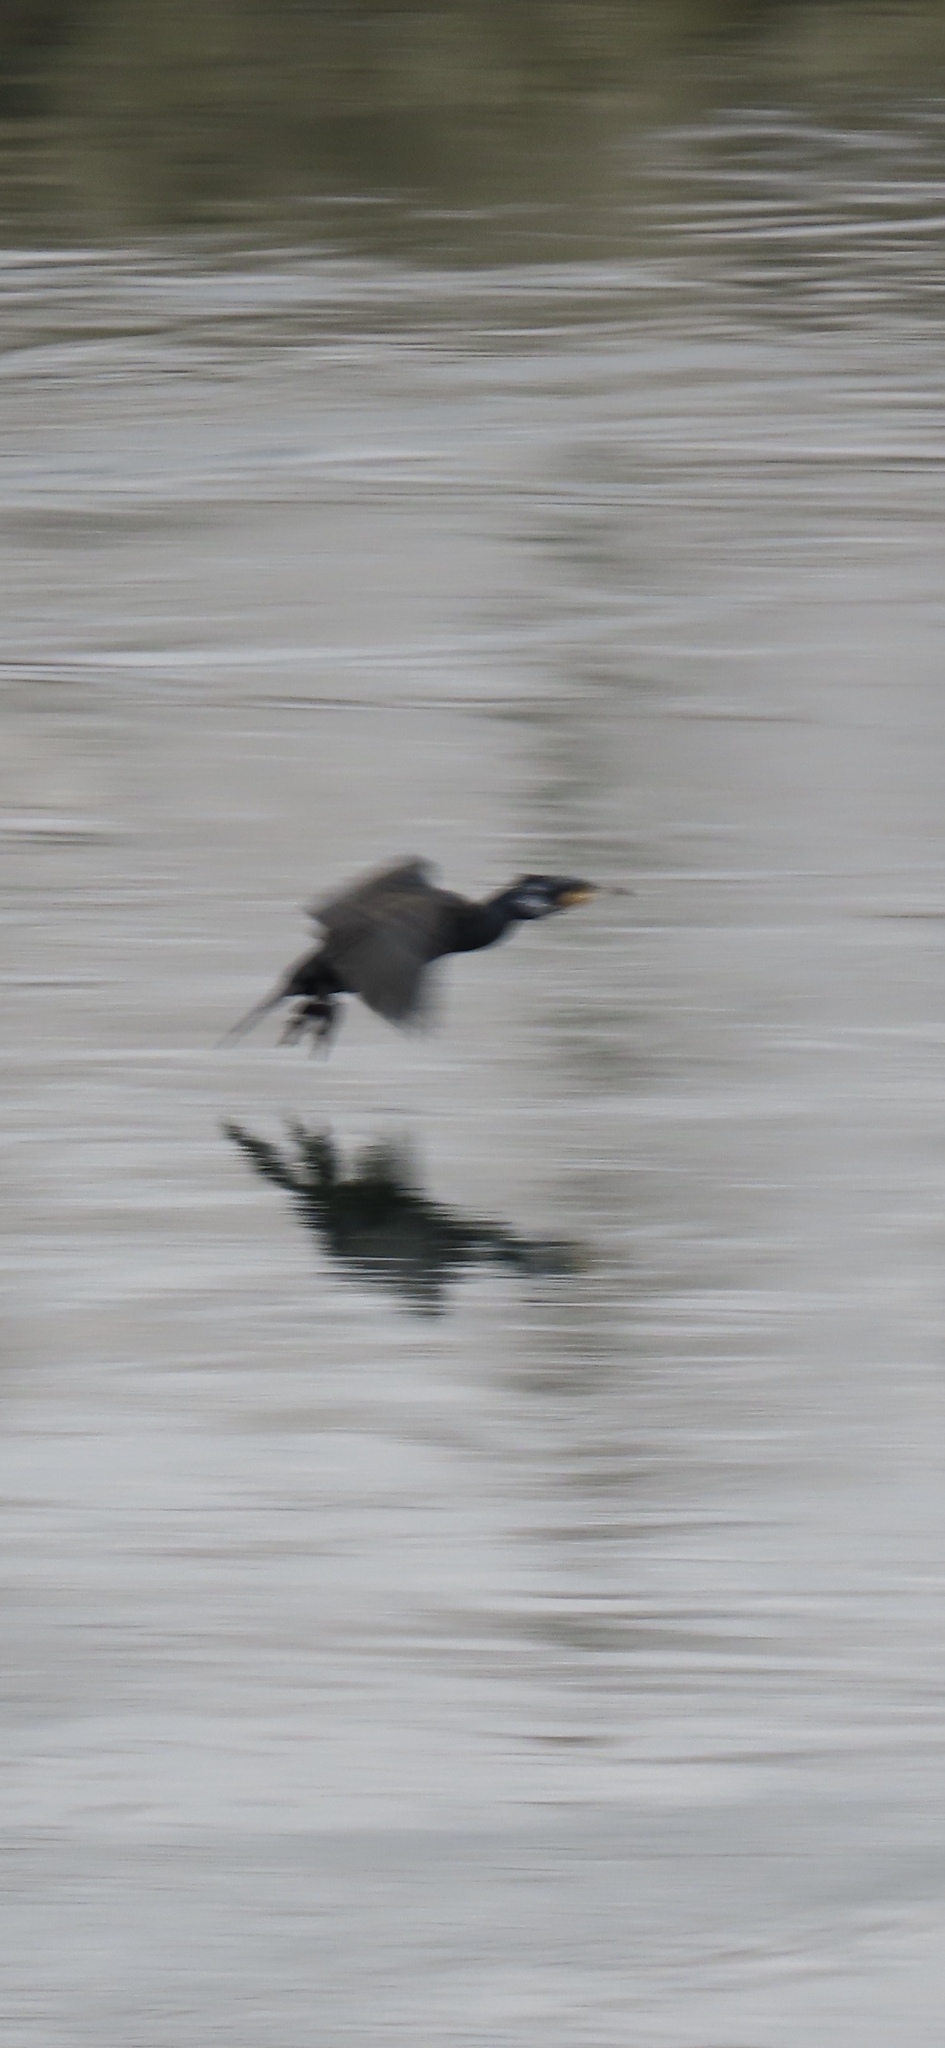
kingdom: Animalia
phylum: Chordata
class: Aves
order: Suliformes
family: Phalacrocoracidae
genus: Phalacrocorax
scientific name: Phalacrocorax carbo
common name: Great cormorant
